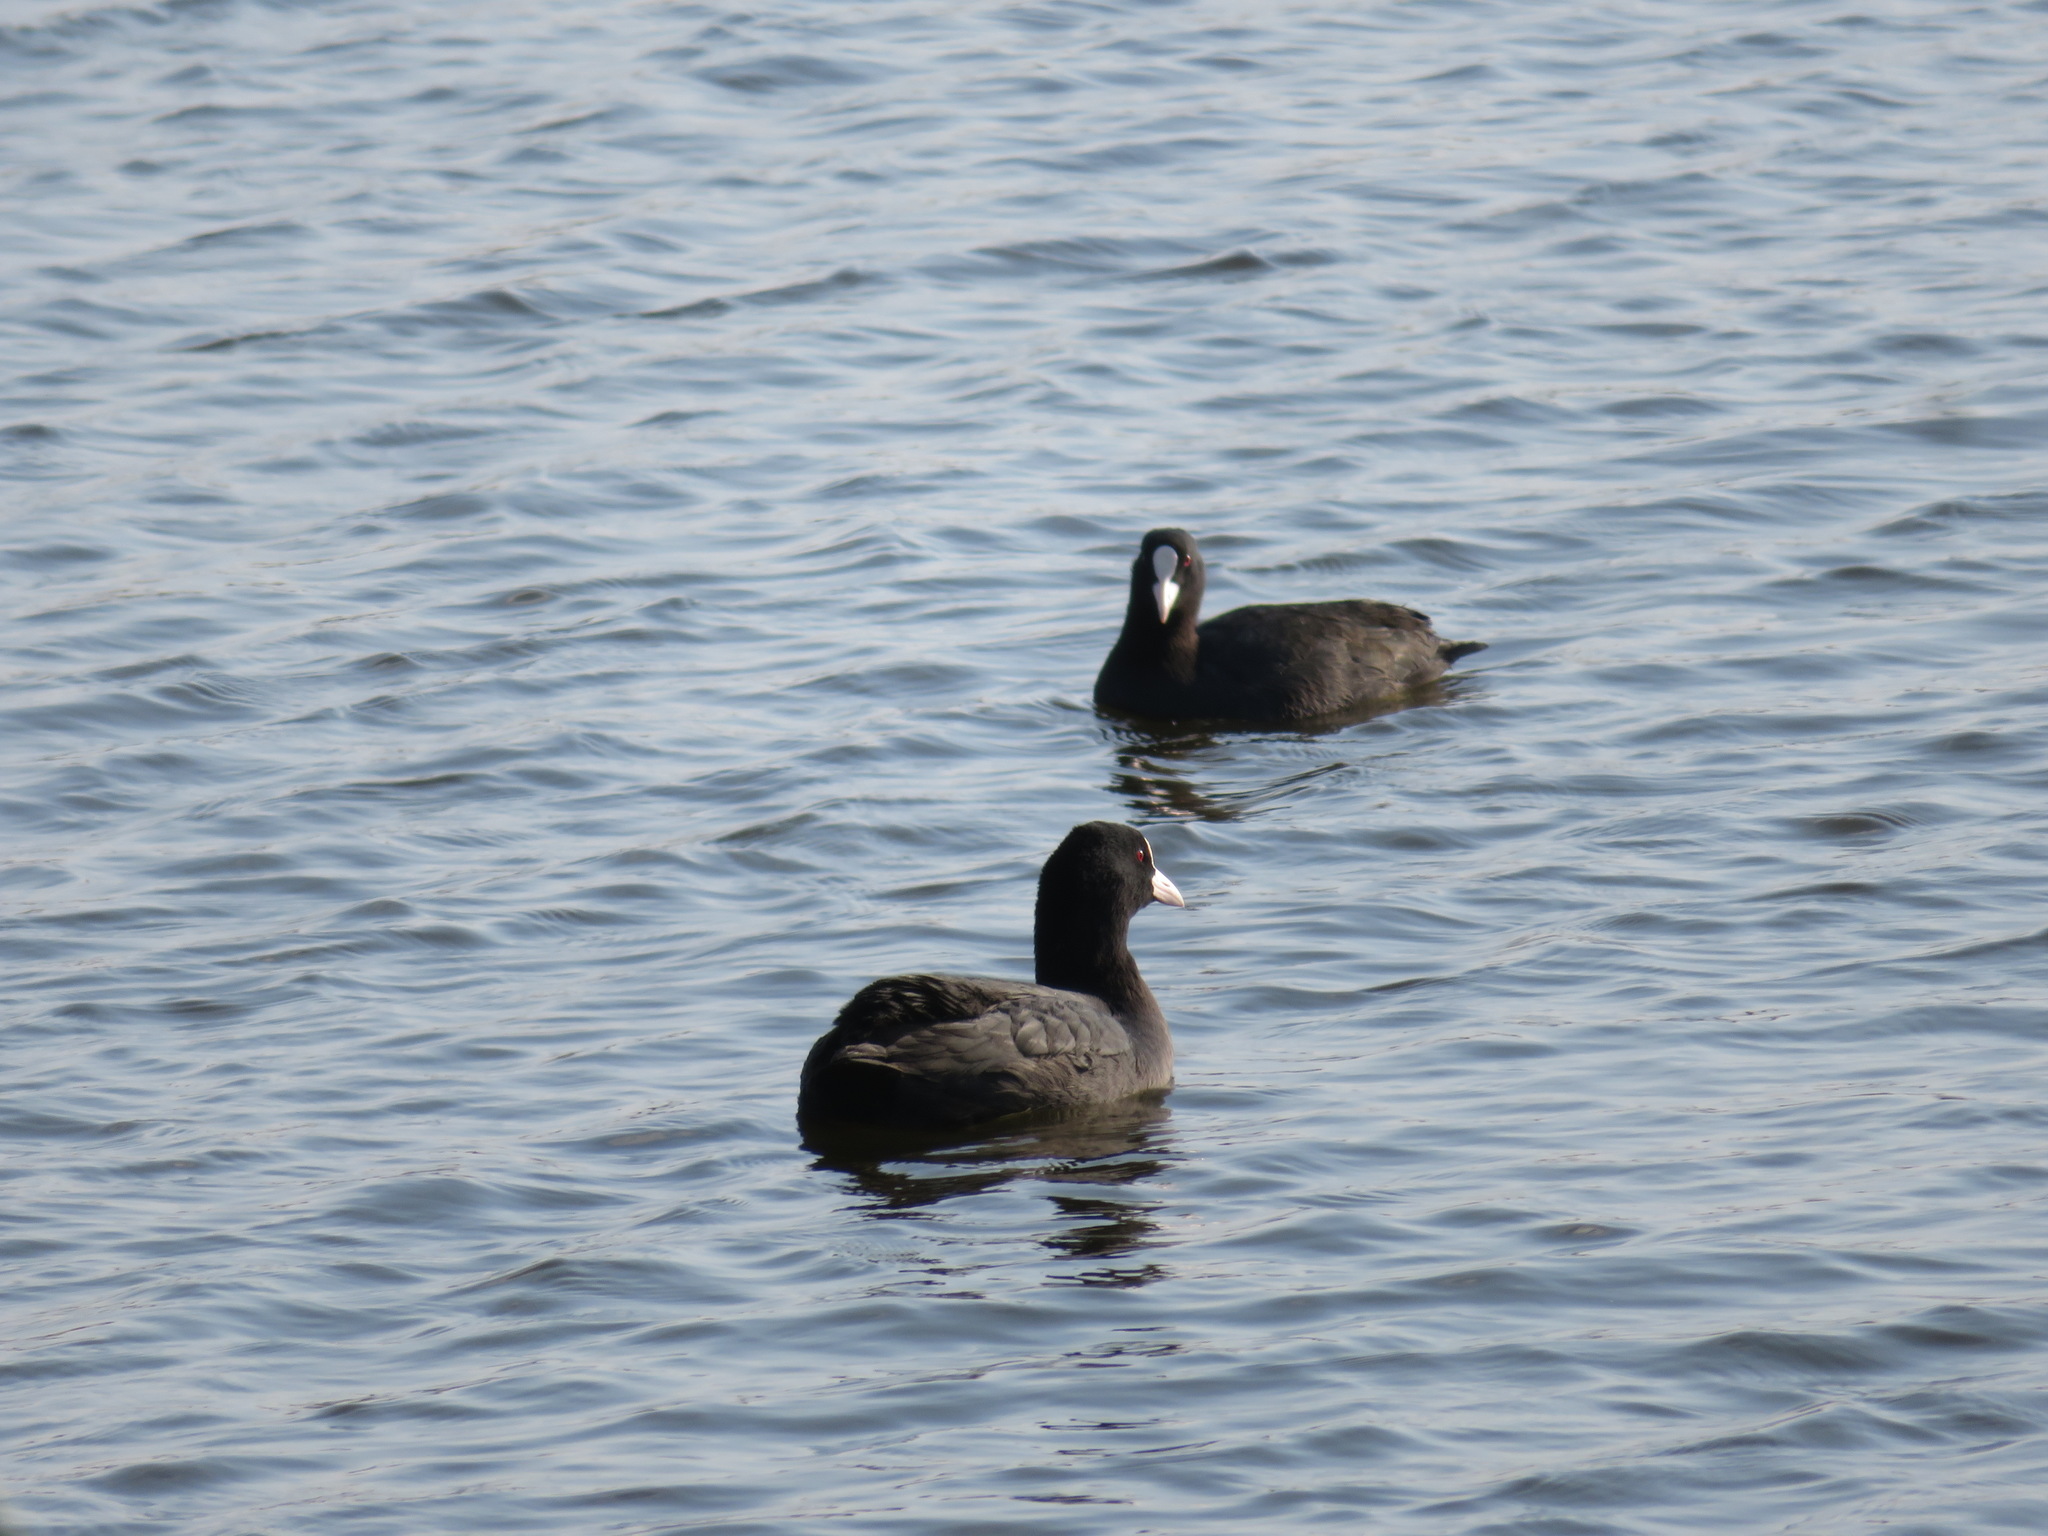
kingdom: Animalia
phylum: Chordata
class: Aves
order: Gruiformes
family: Rallidae
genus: Fulica
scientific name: Fulica atra
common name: Eurasian coot
